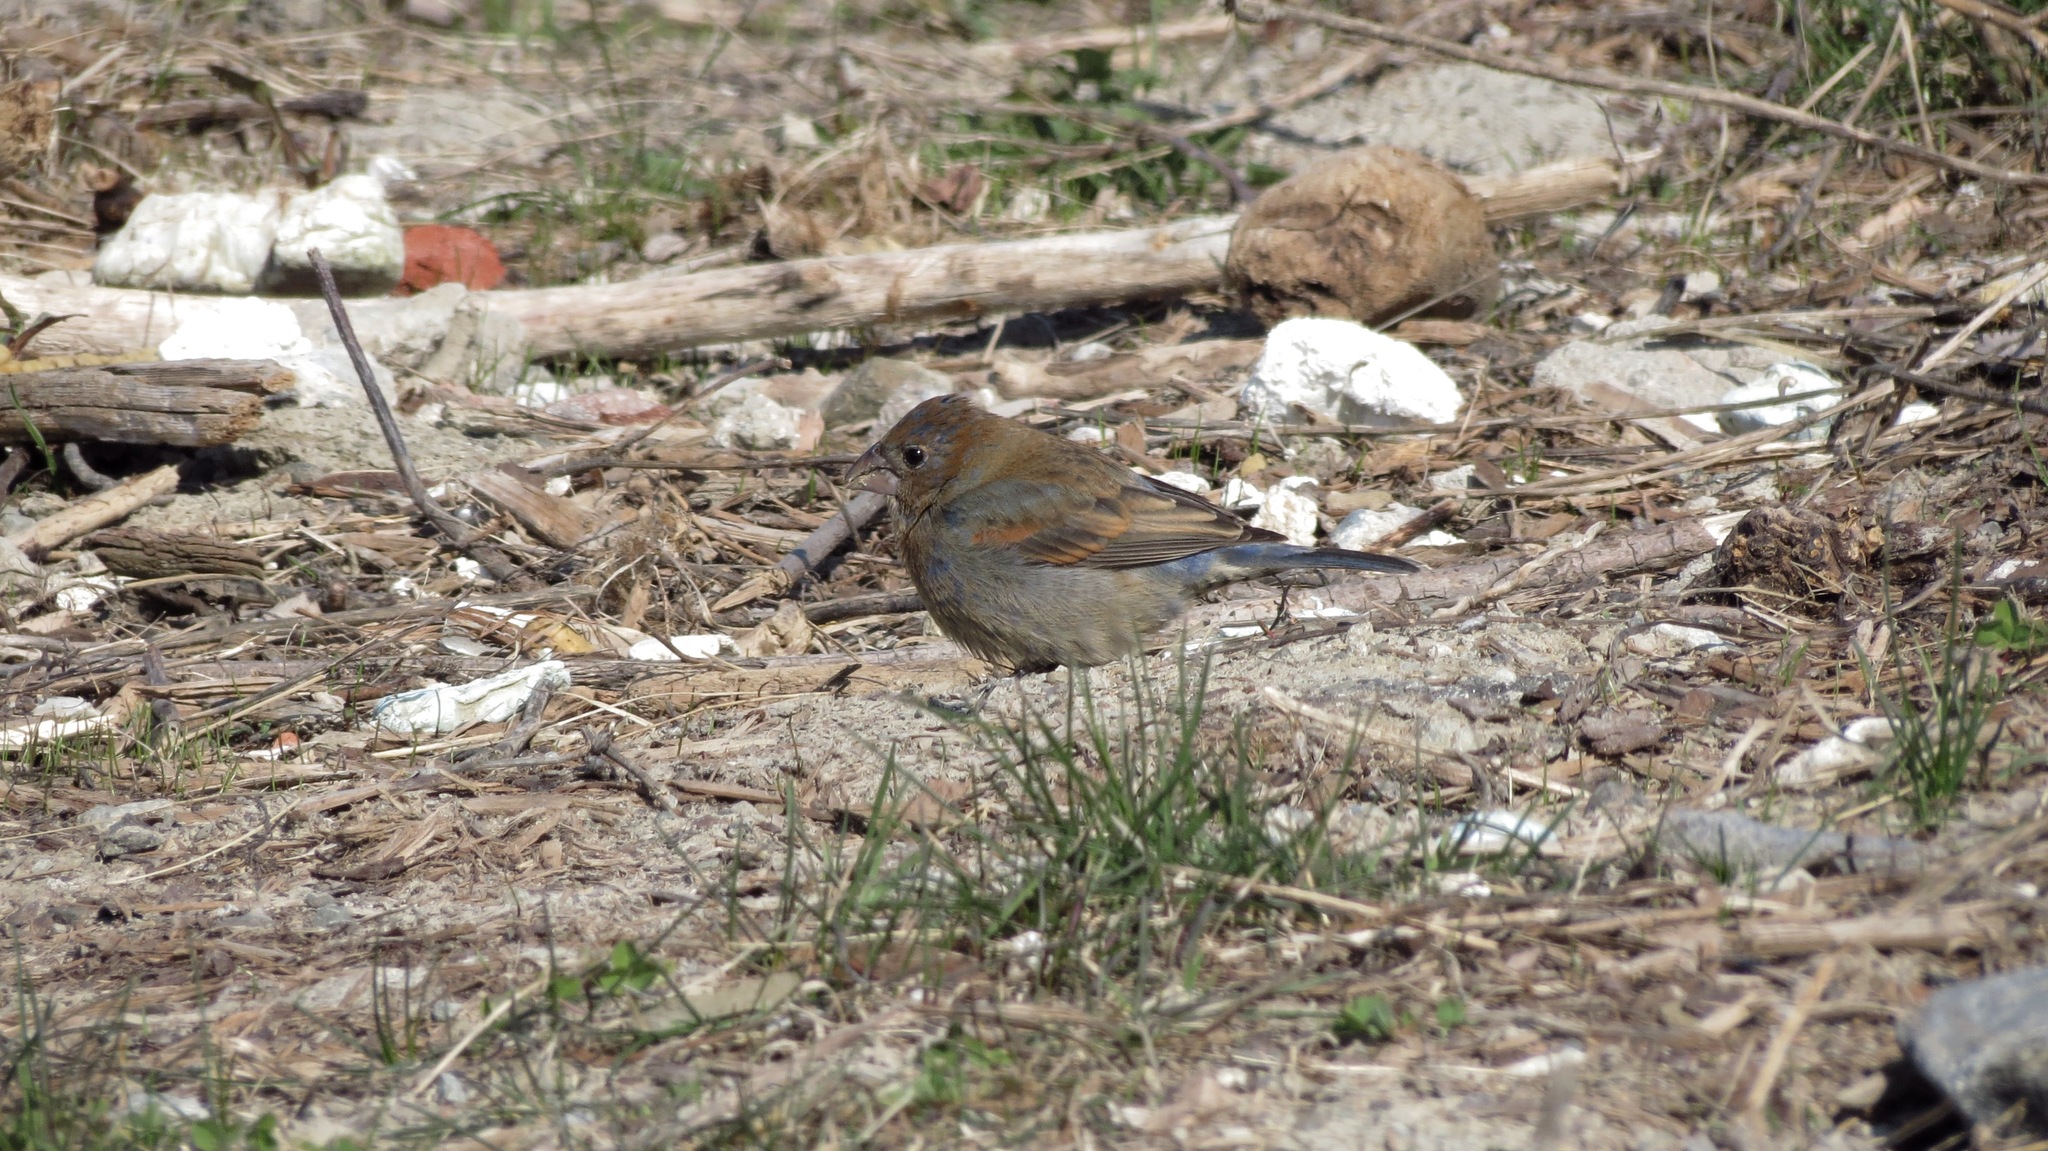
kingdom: Animalia
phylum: Chordata
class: Aves
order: Passeriformes
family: Cardinalidae
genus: Passerina
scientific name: Passerina caerulea
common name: Blue grosbeak
